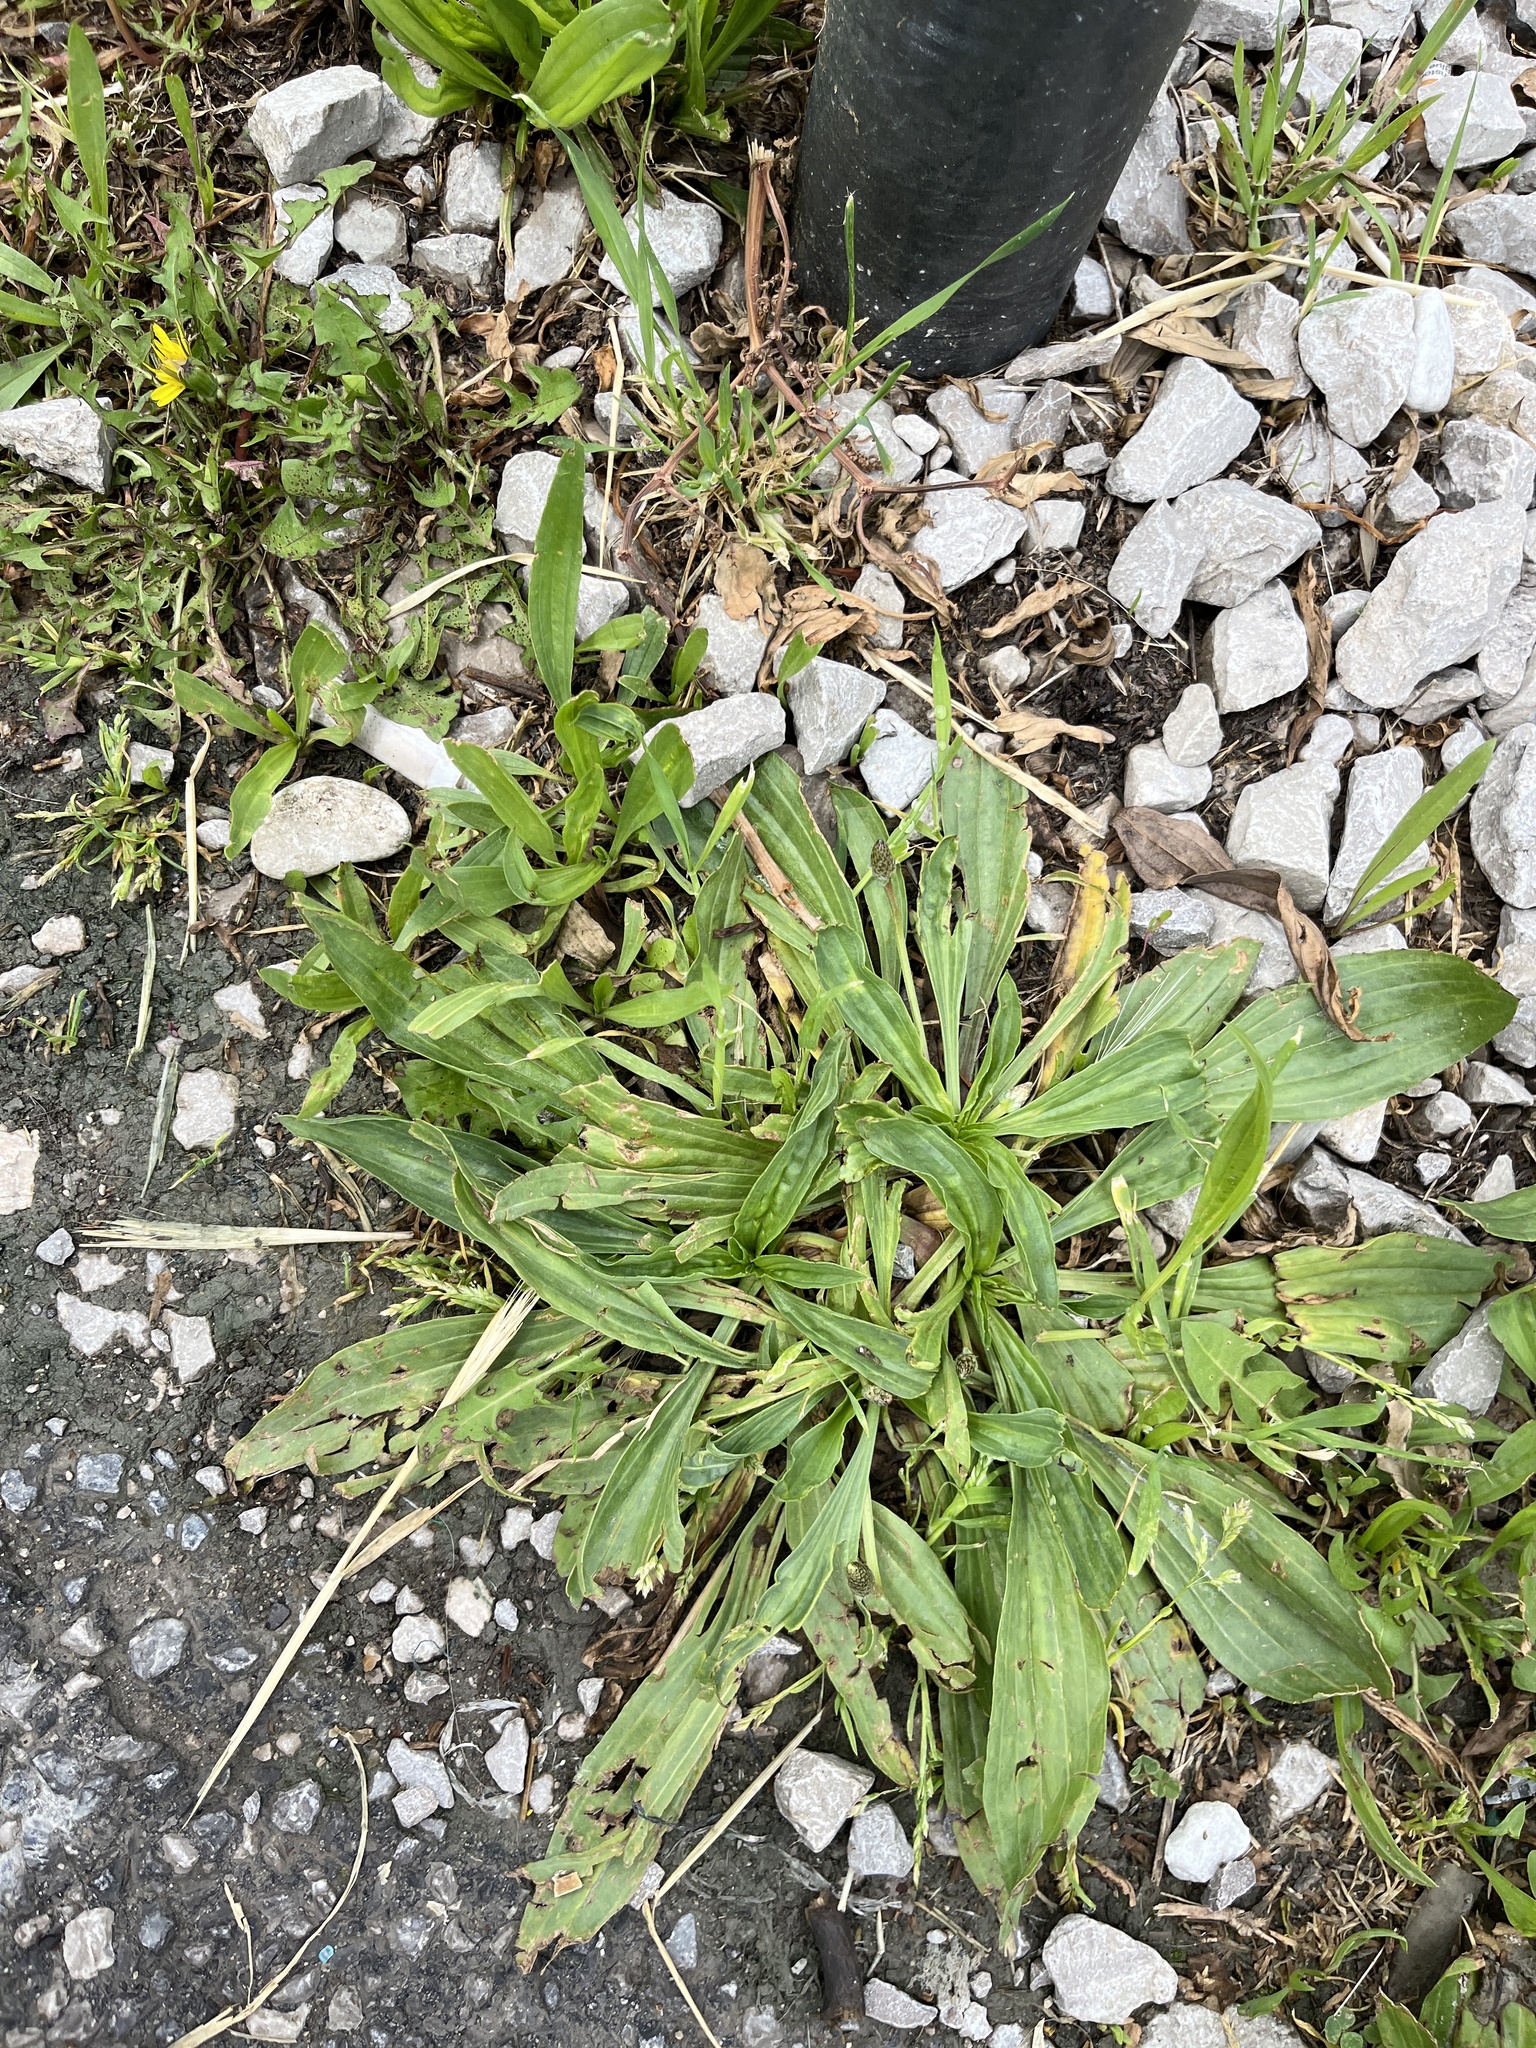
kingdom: Plantae
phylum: Tracheophyta
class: Magnoliopsida
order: Lamiales
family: Plantaginaceae
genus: Plantago
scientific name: Plantago lanceolata
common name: Ribwort plantain
